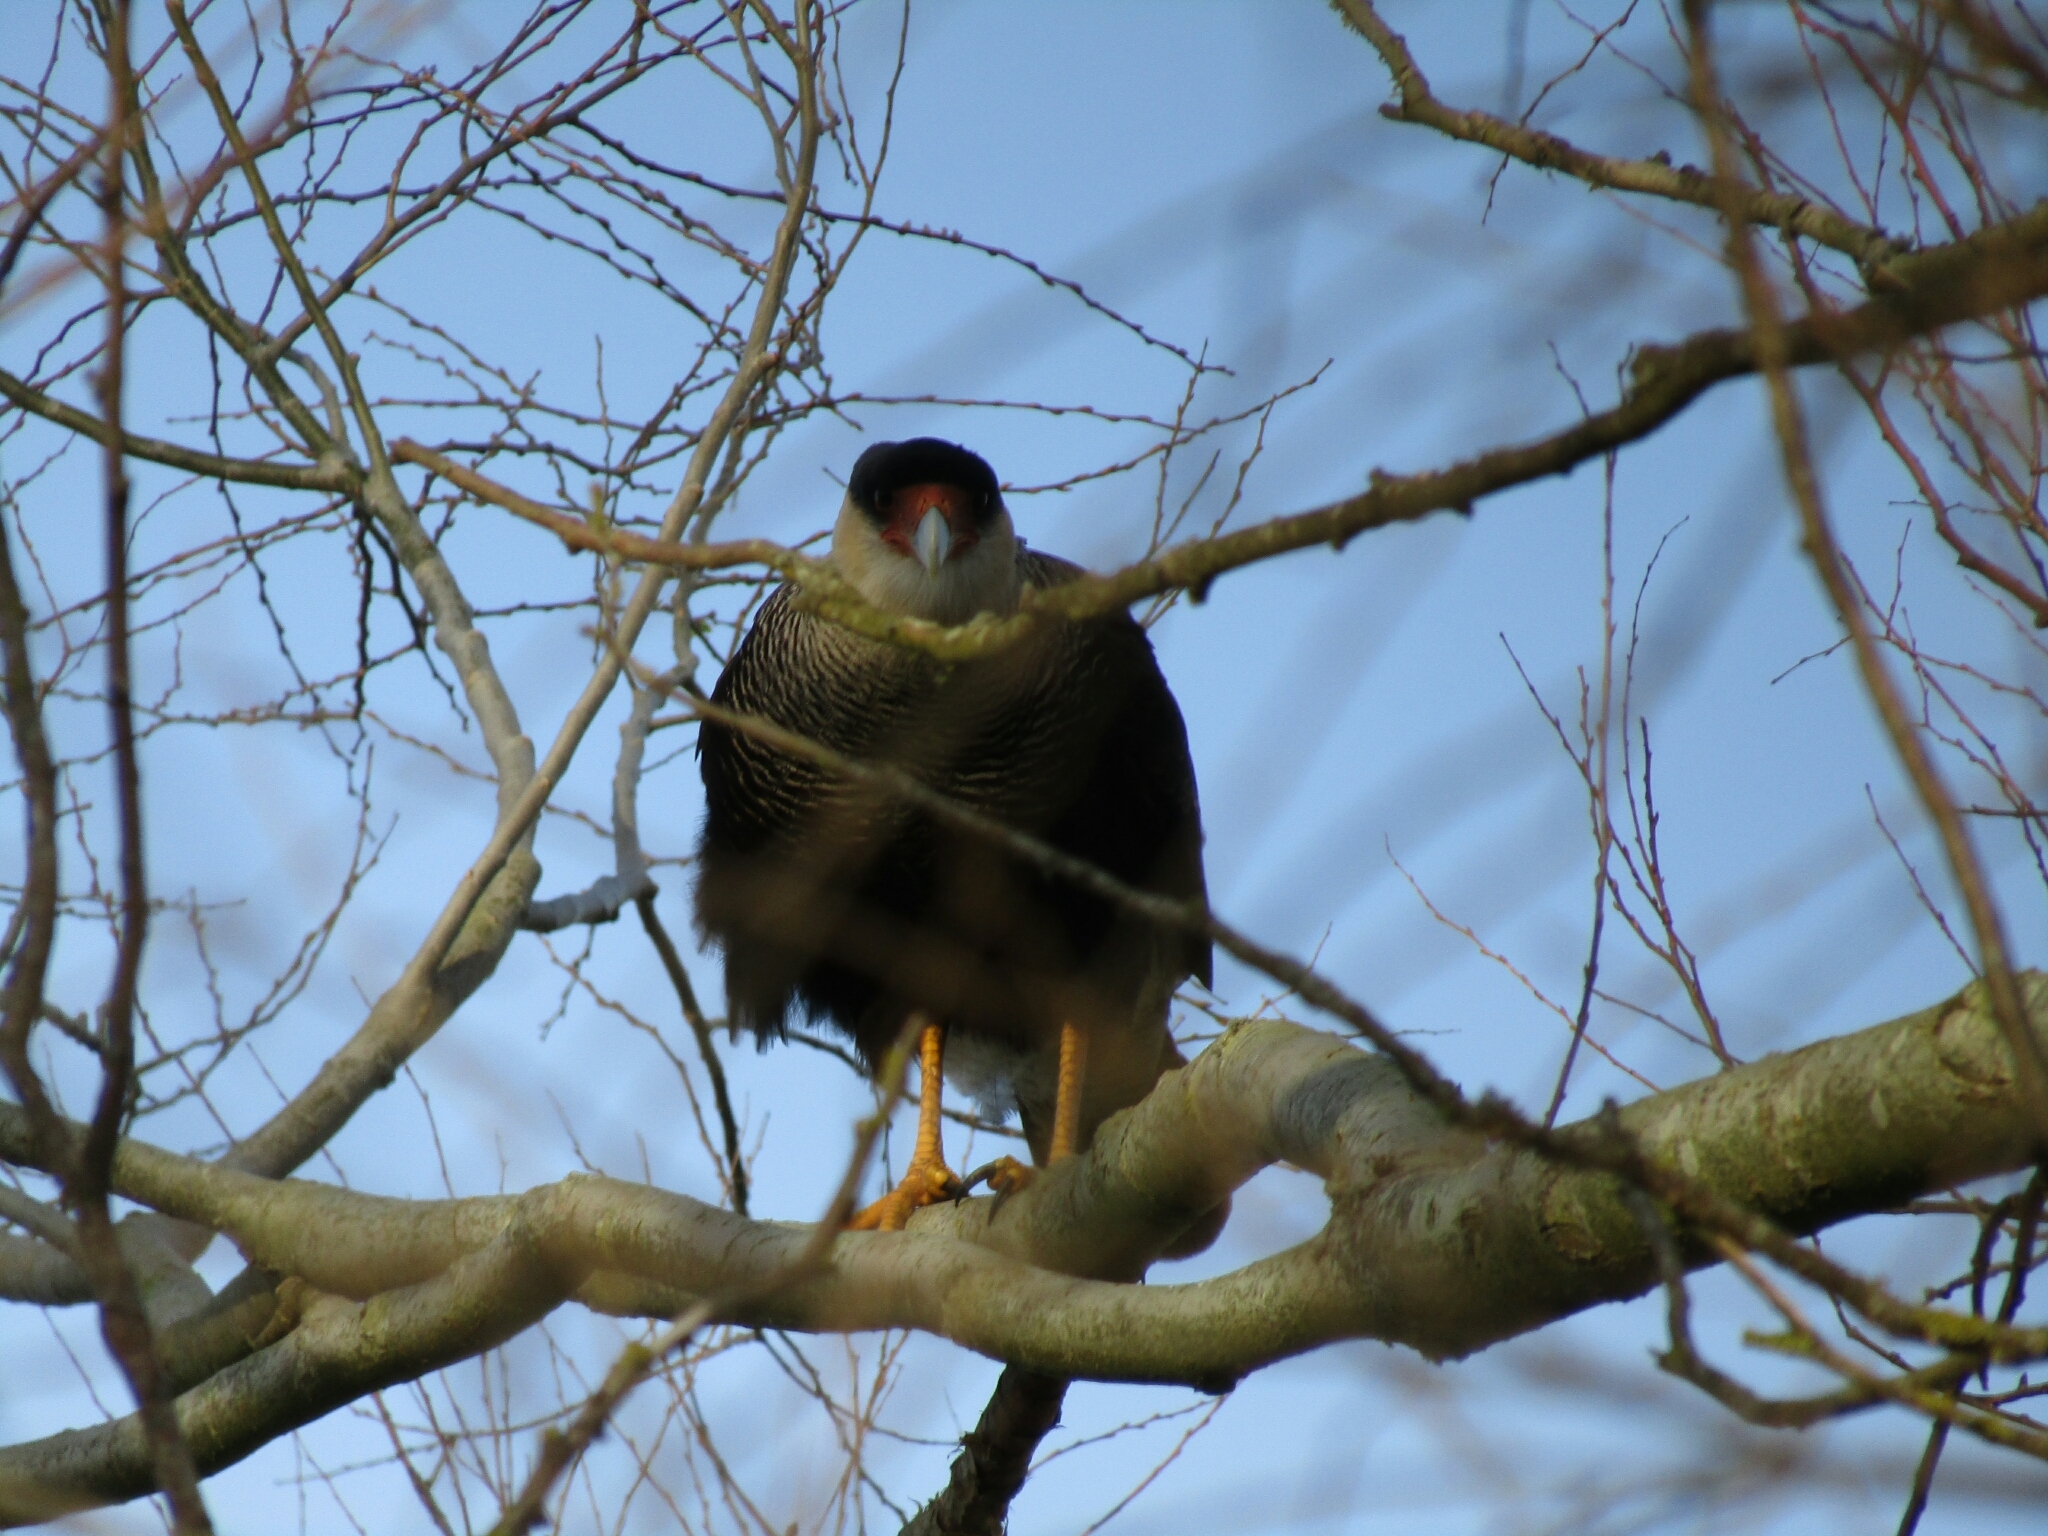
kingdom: Animalia
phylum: Chordata
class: Aves
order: Falconiformes
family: Falconidae
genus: Caracara
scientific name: Caracara plancus
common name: Southern caracara
